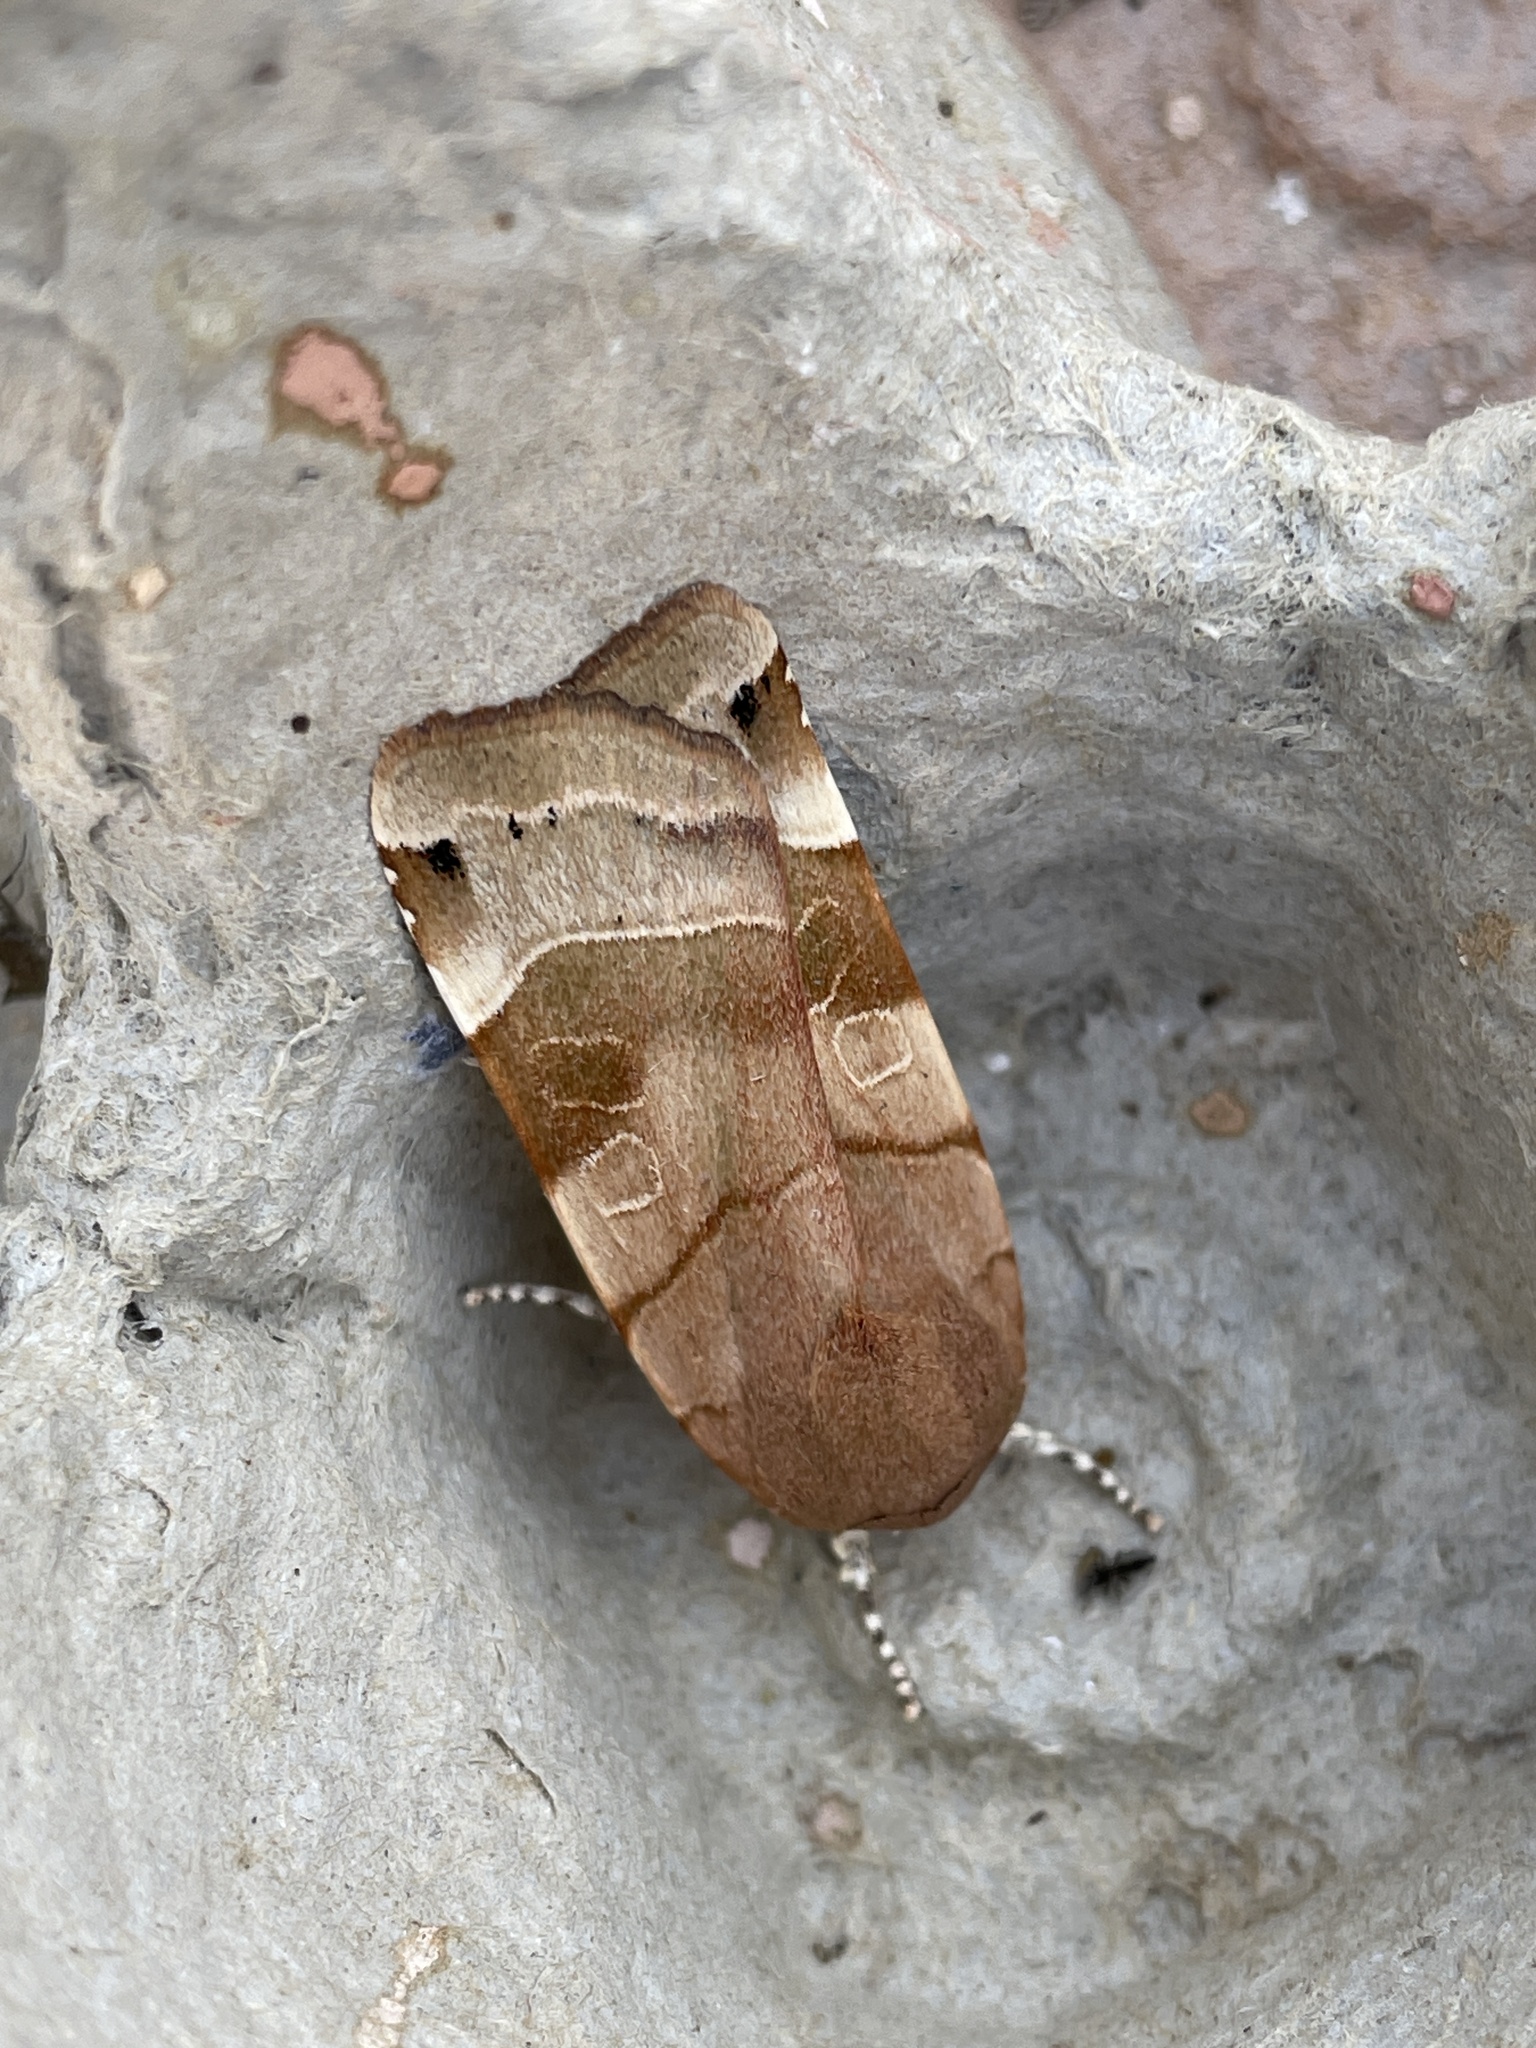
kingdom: Animalia
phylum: Arthropoda
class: Insecta
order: Lepidoptera
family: Noctuidae
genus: Noctua
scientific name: Noctua fimbriata
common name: Broad-bordered yellow underwing
